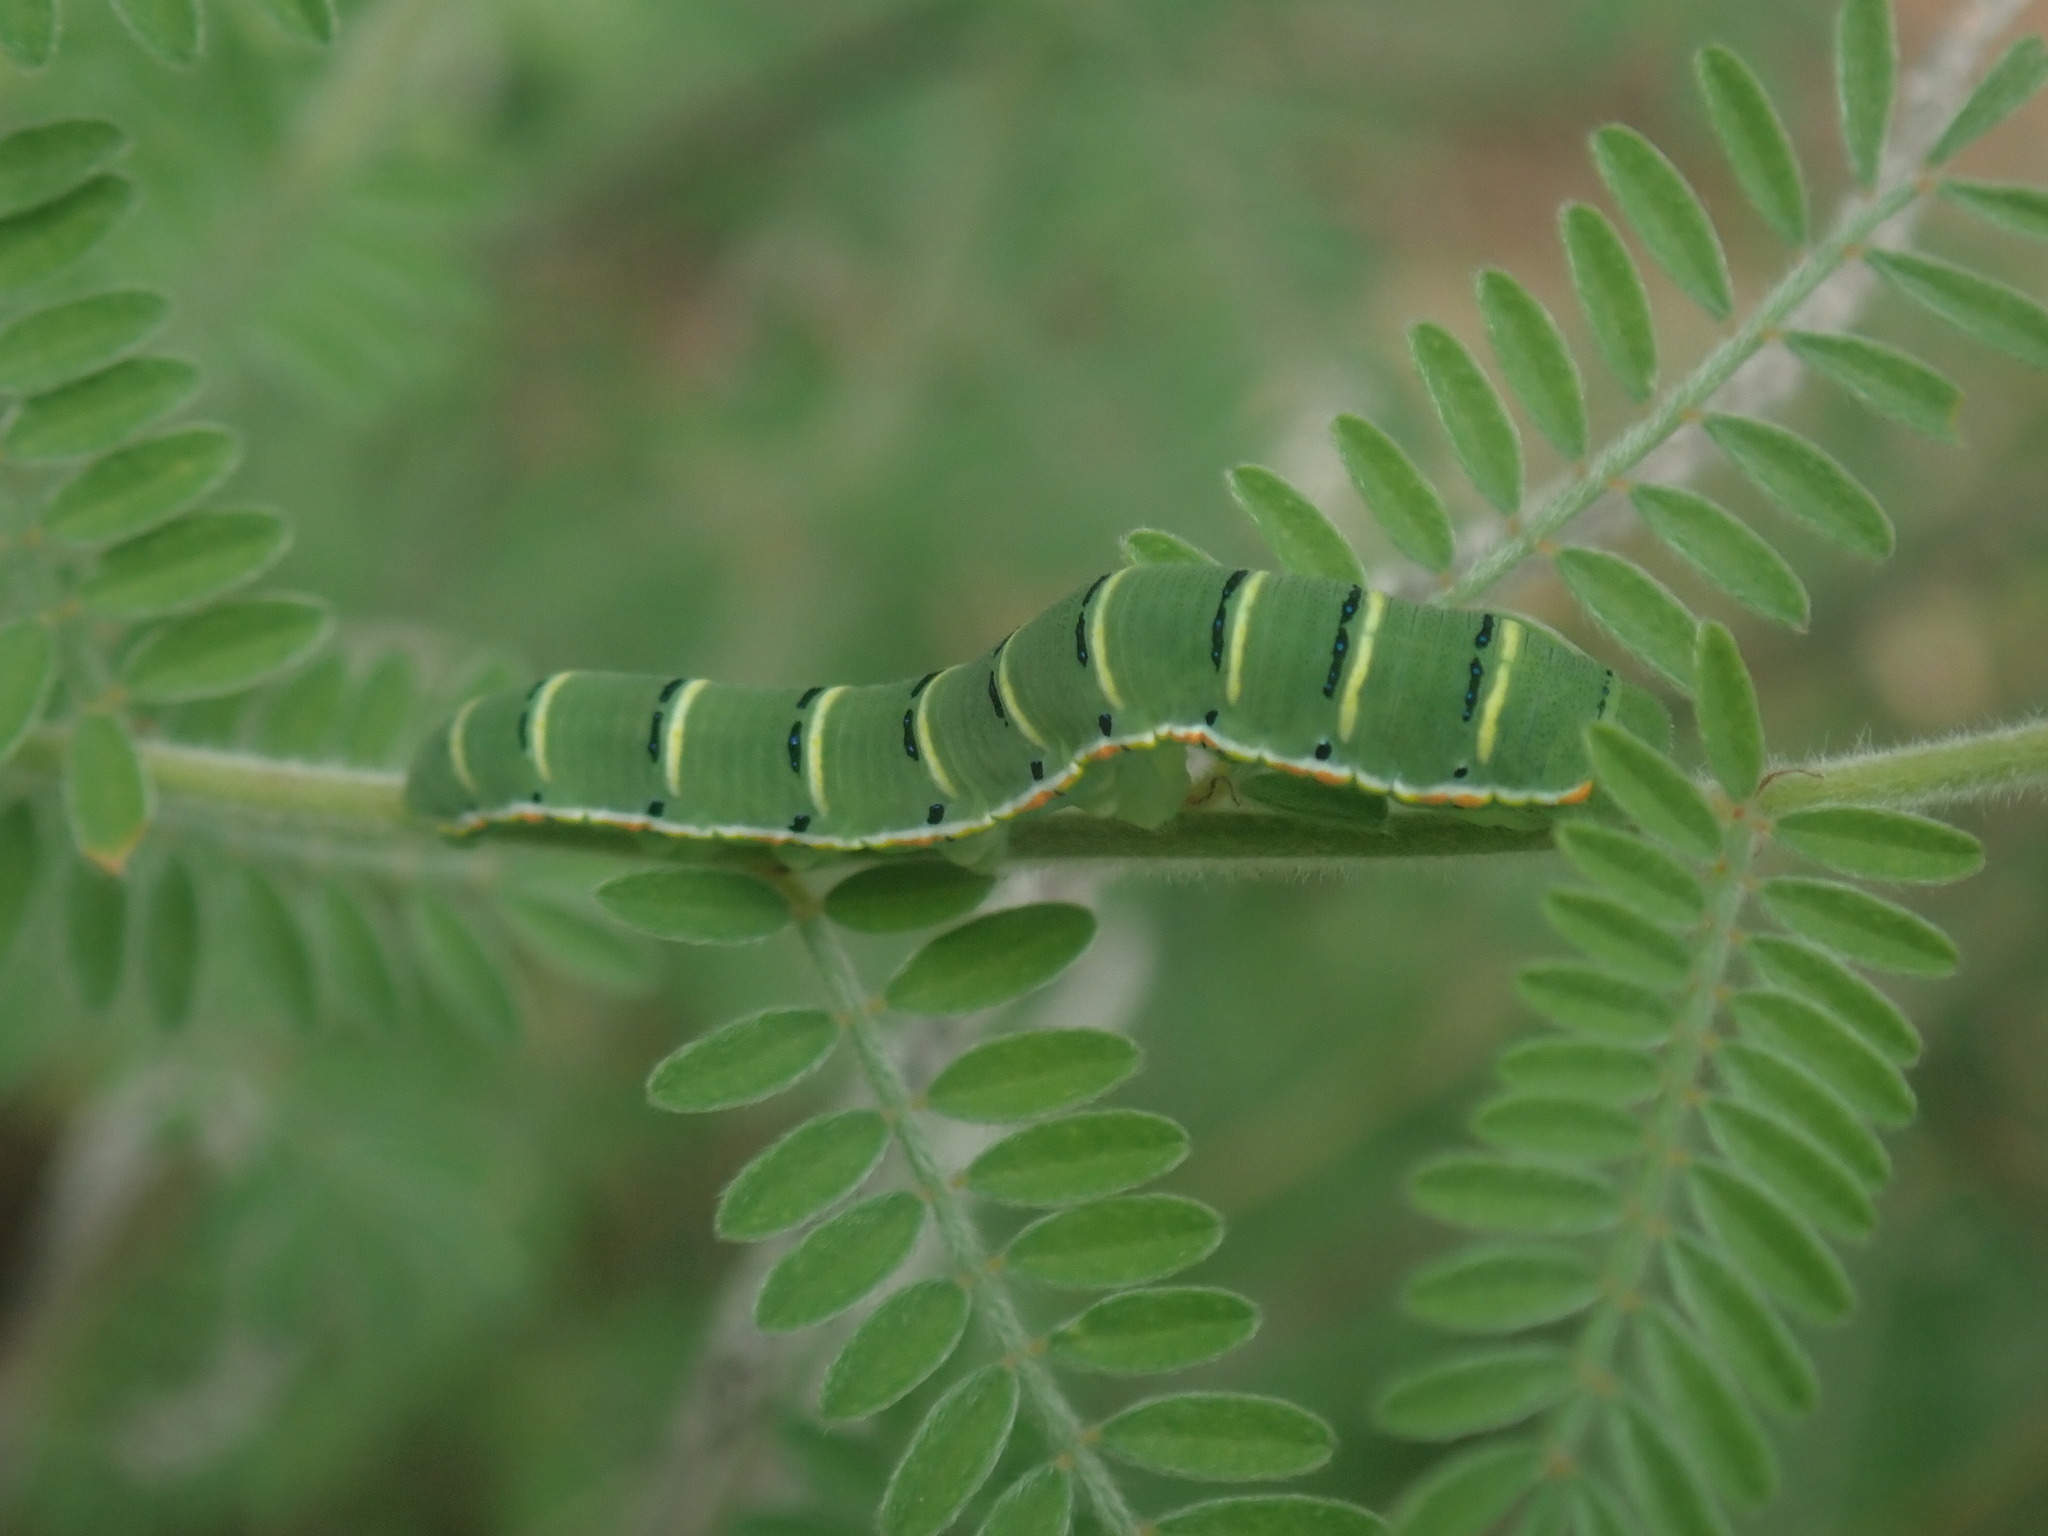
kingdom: Animalia
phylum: Arthropoda
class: Insecta
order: Lepidoptera
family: Pieridae
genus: Zerene
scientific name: Zerene cesonia
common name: Southern dogface
